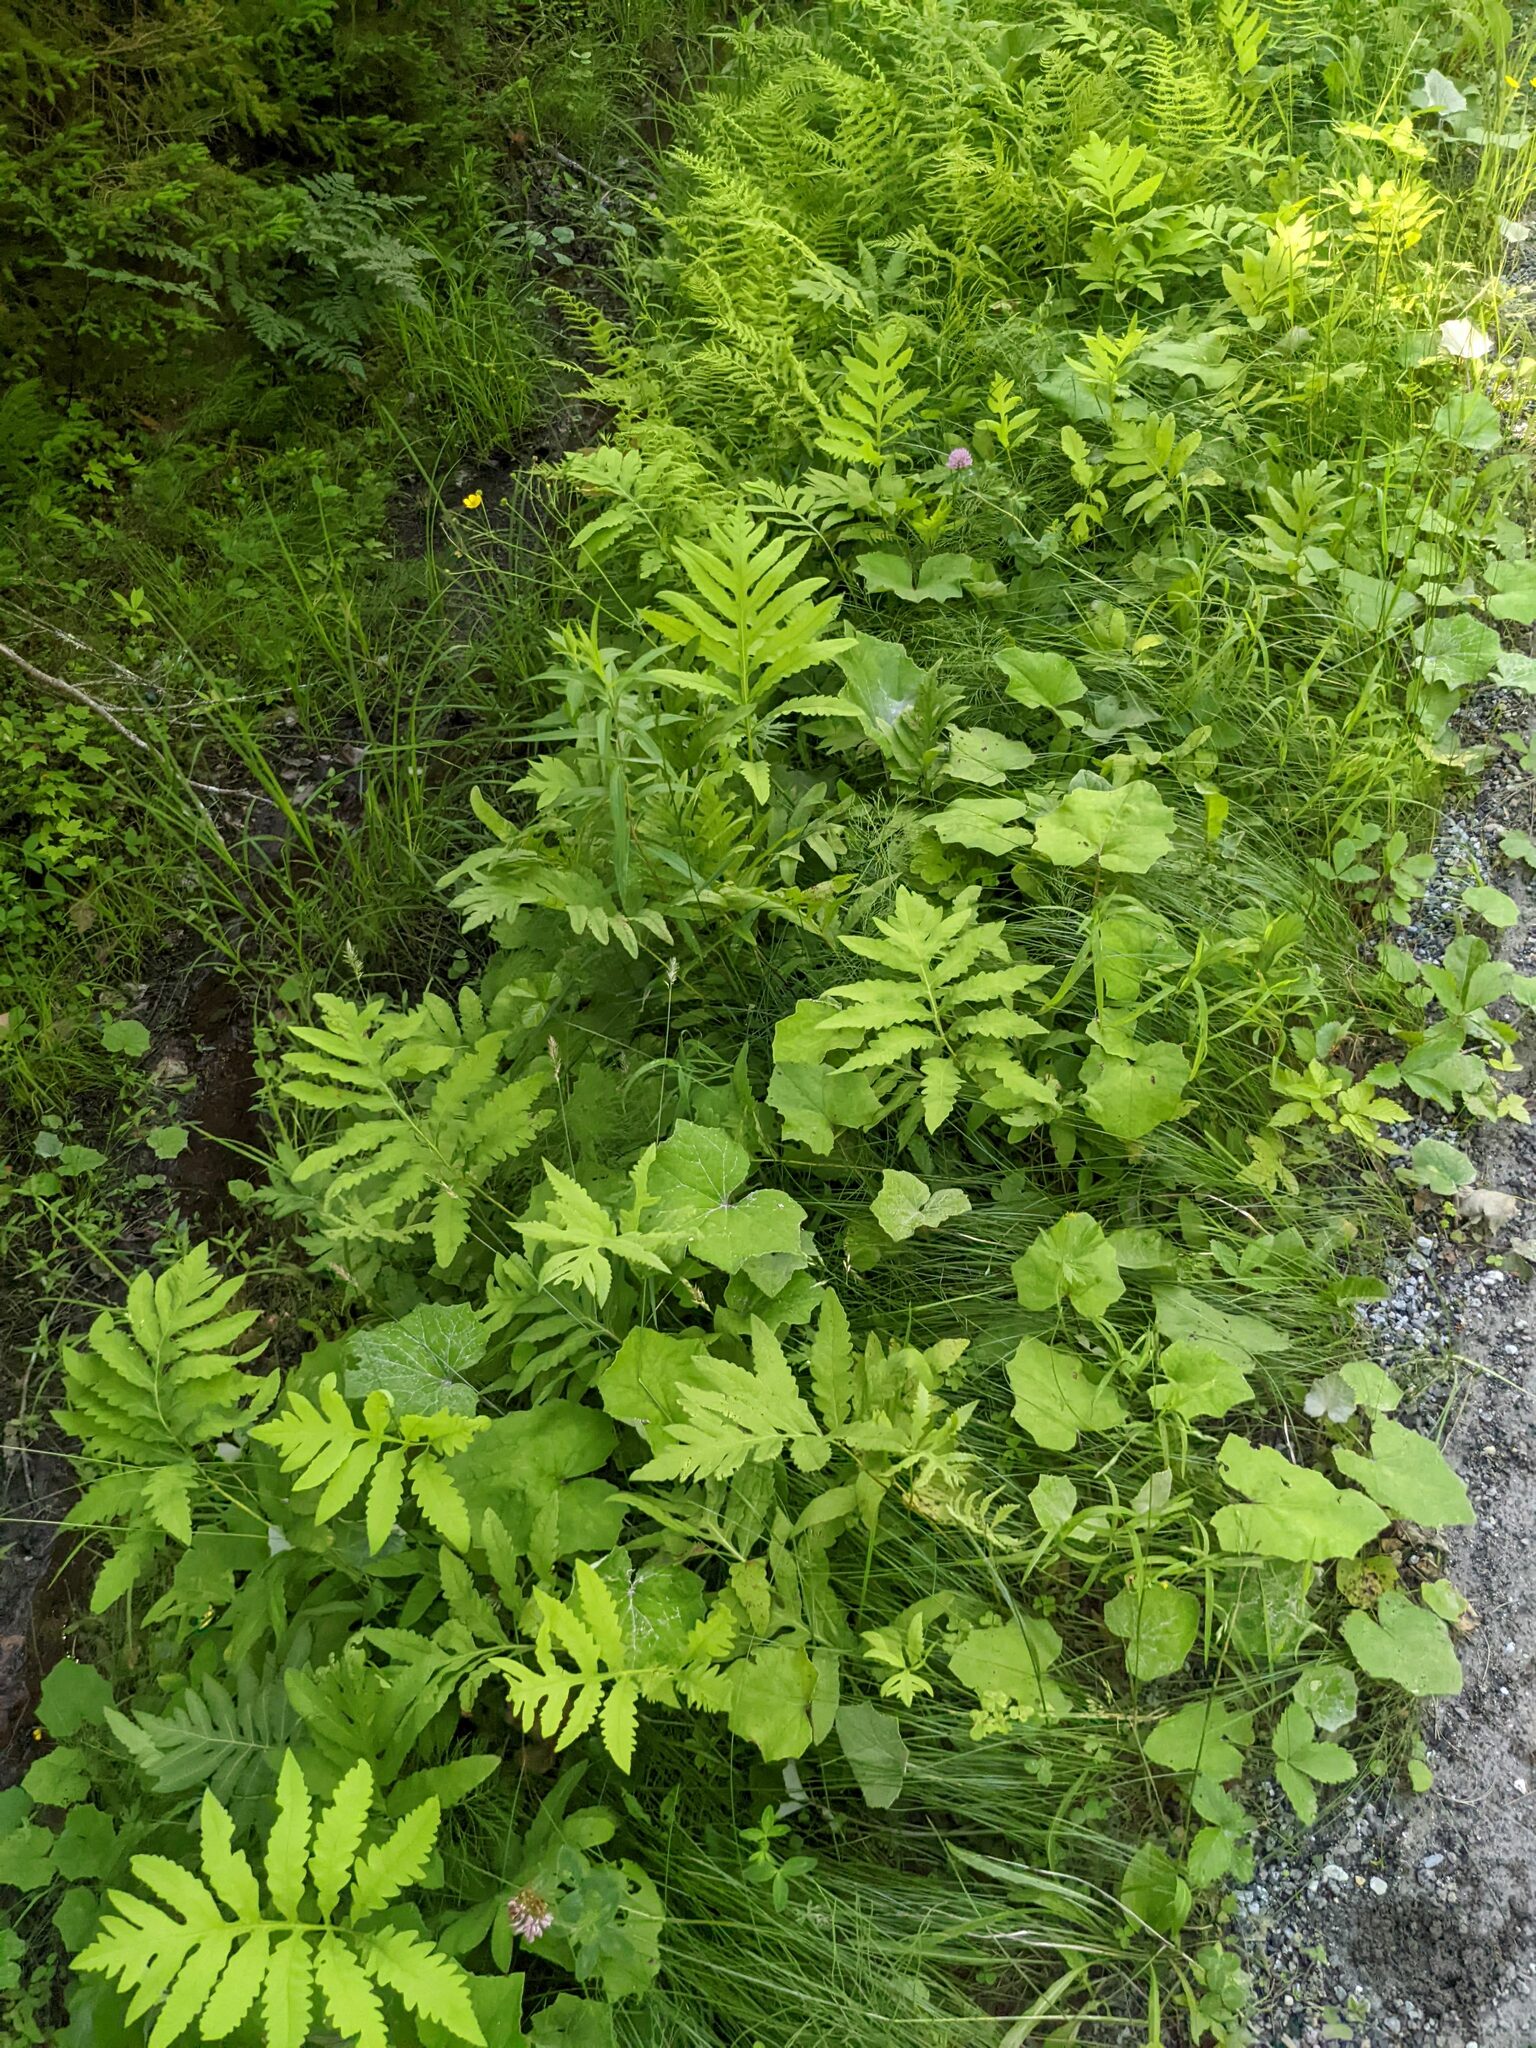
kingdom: Plantae
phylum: Tracheophyta
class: Polypodiopsida
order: Polypodiales
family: Onocleaceae
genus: Onoclea
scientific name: Onoclea sensibilis
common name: Sensitive fern
